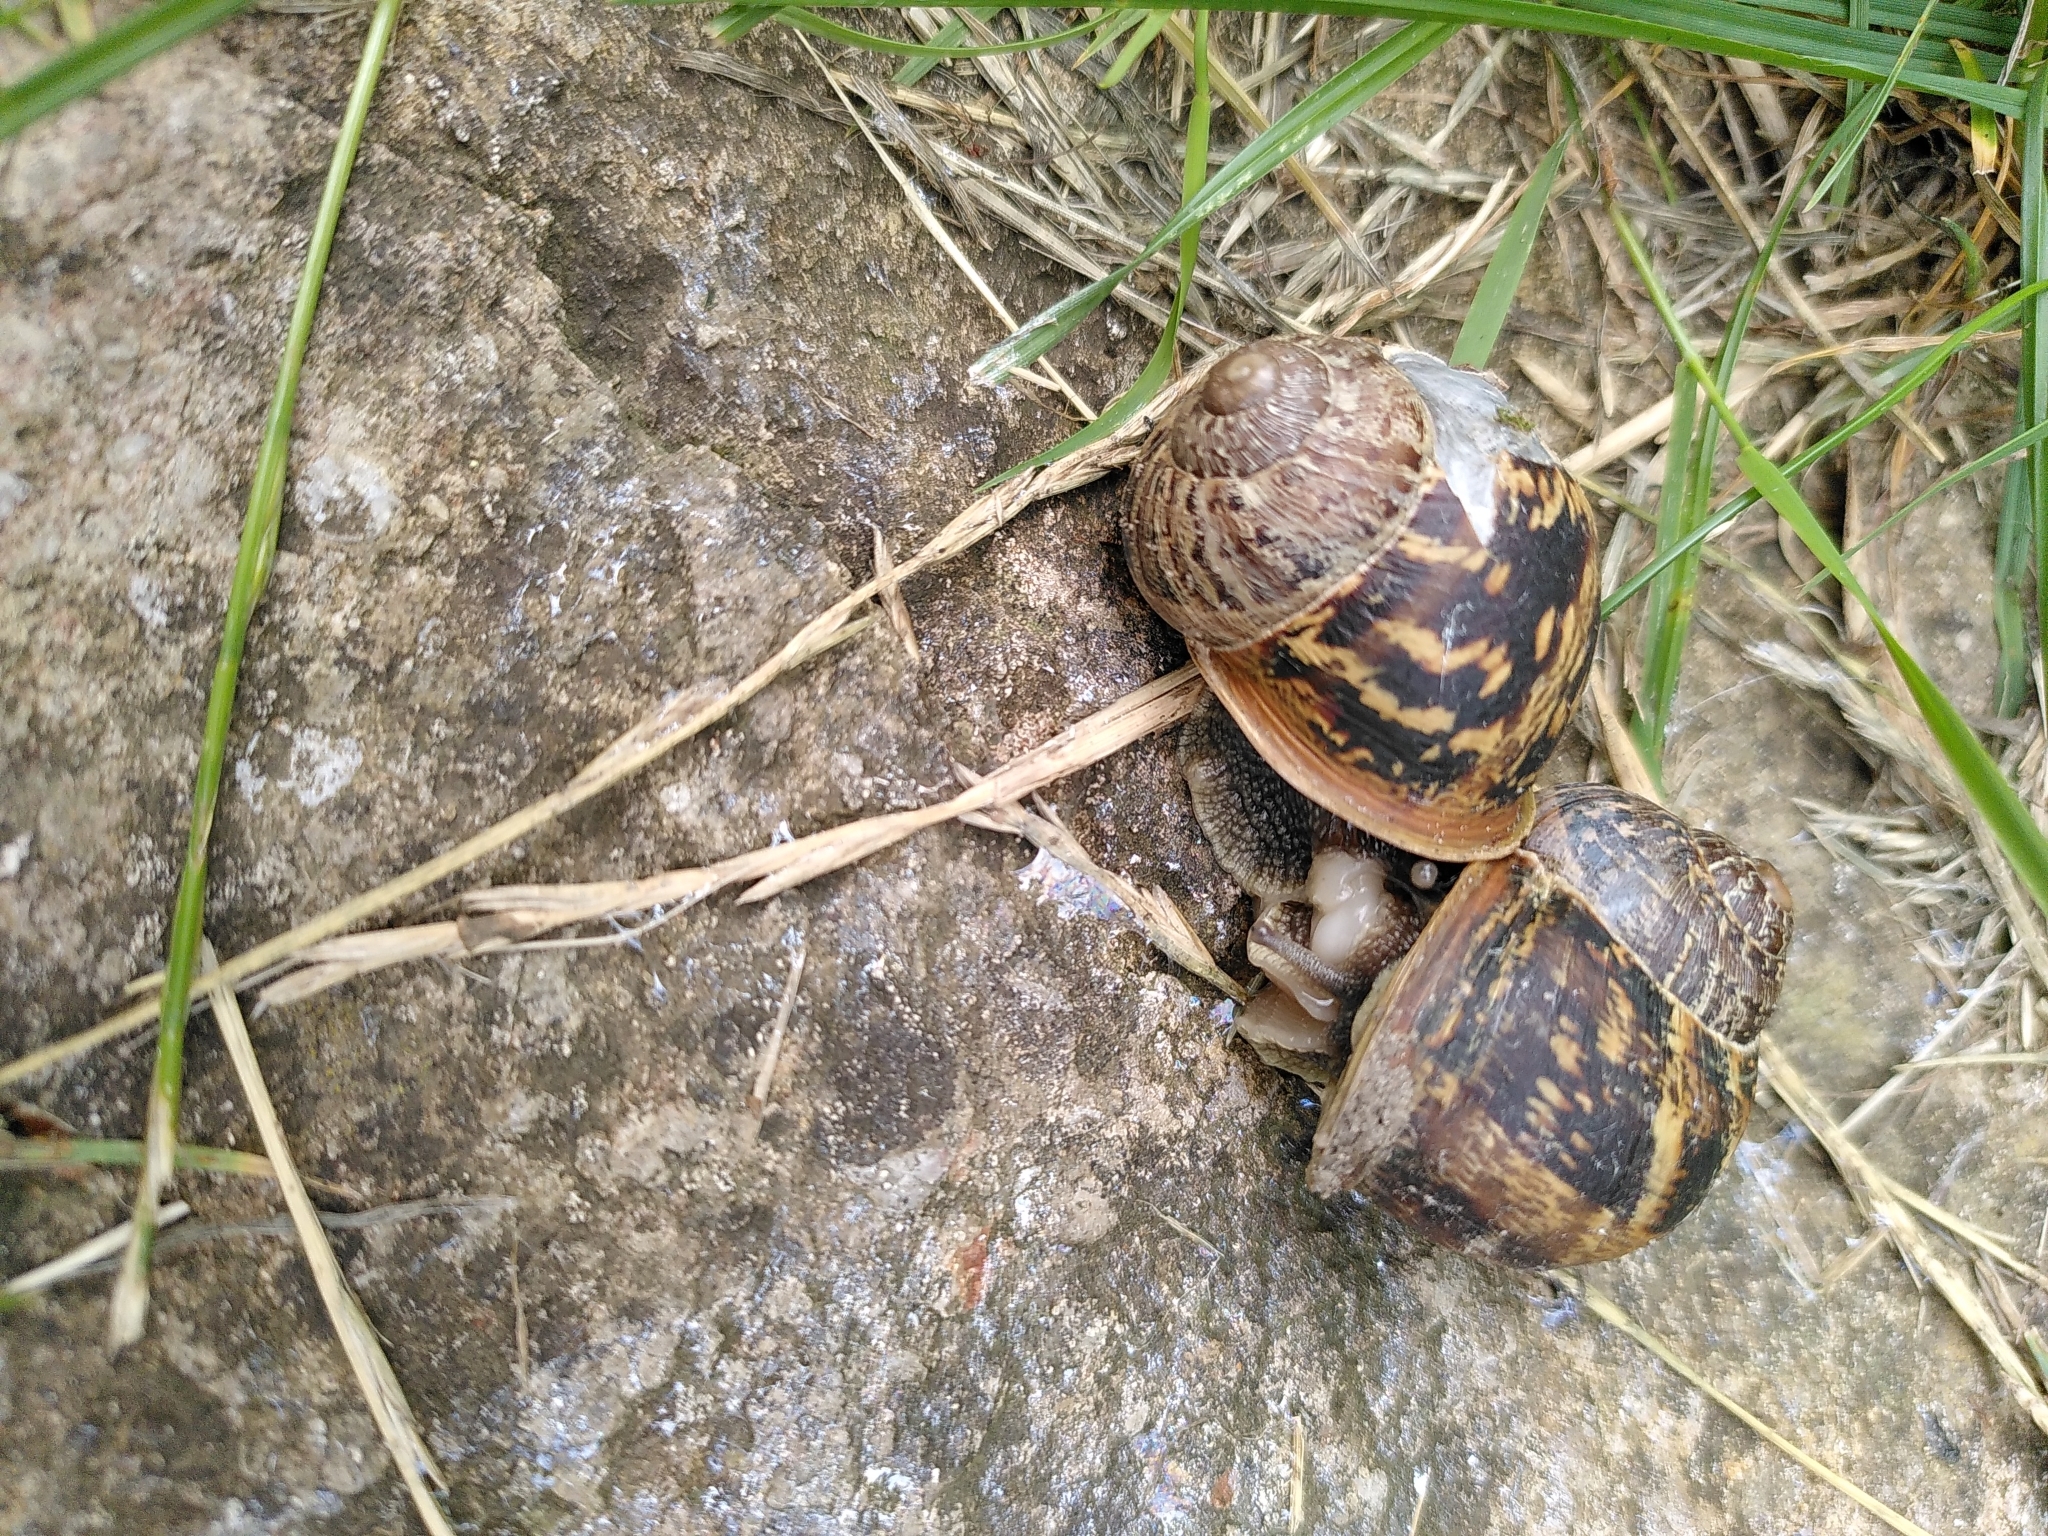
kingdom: Animalia
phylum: Mollusca
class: Gastropoda
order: Stylommatophora
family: Helicidae
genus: Cornu
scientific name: Cornu aspersum
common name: Brown garden snail
